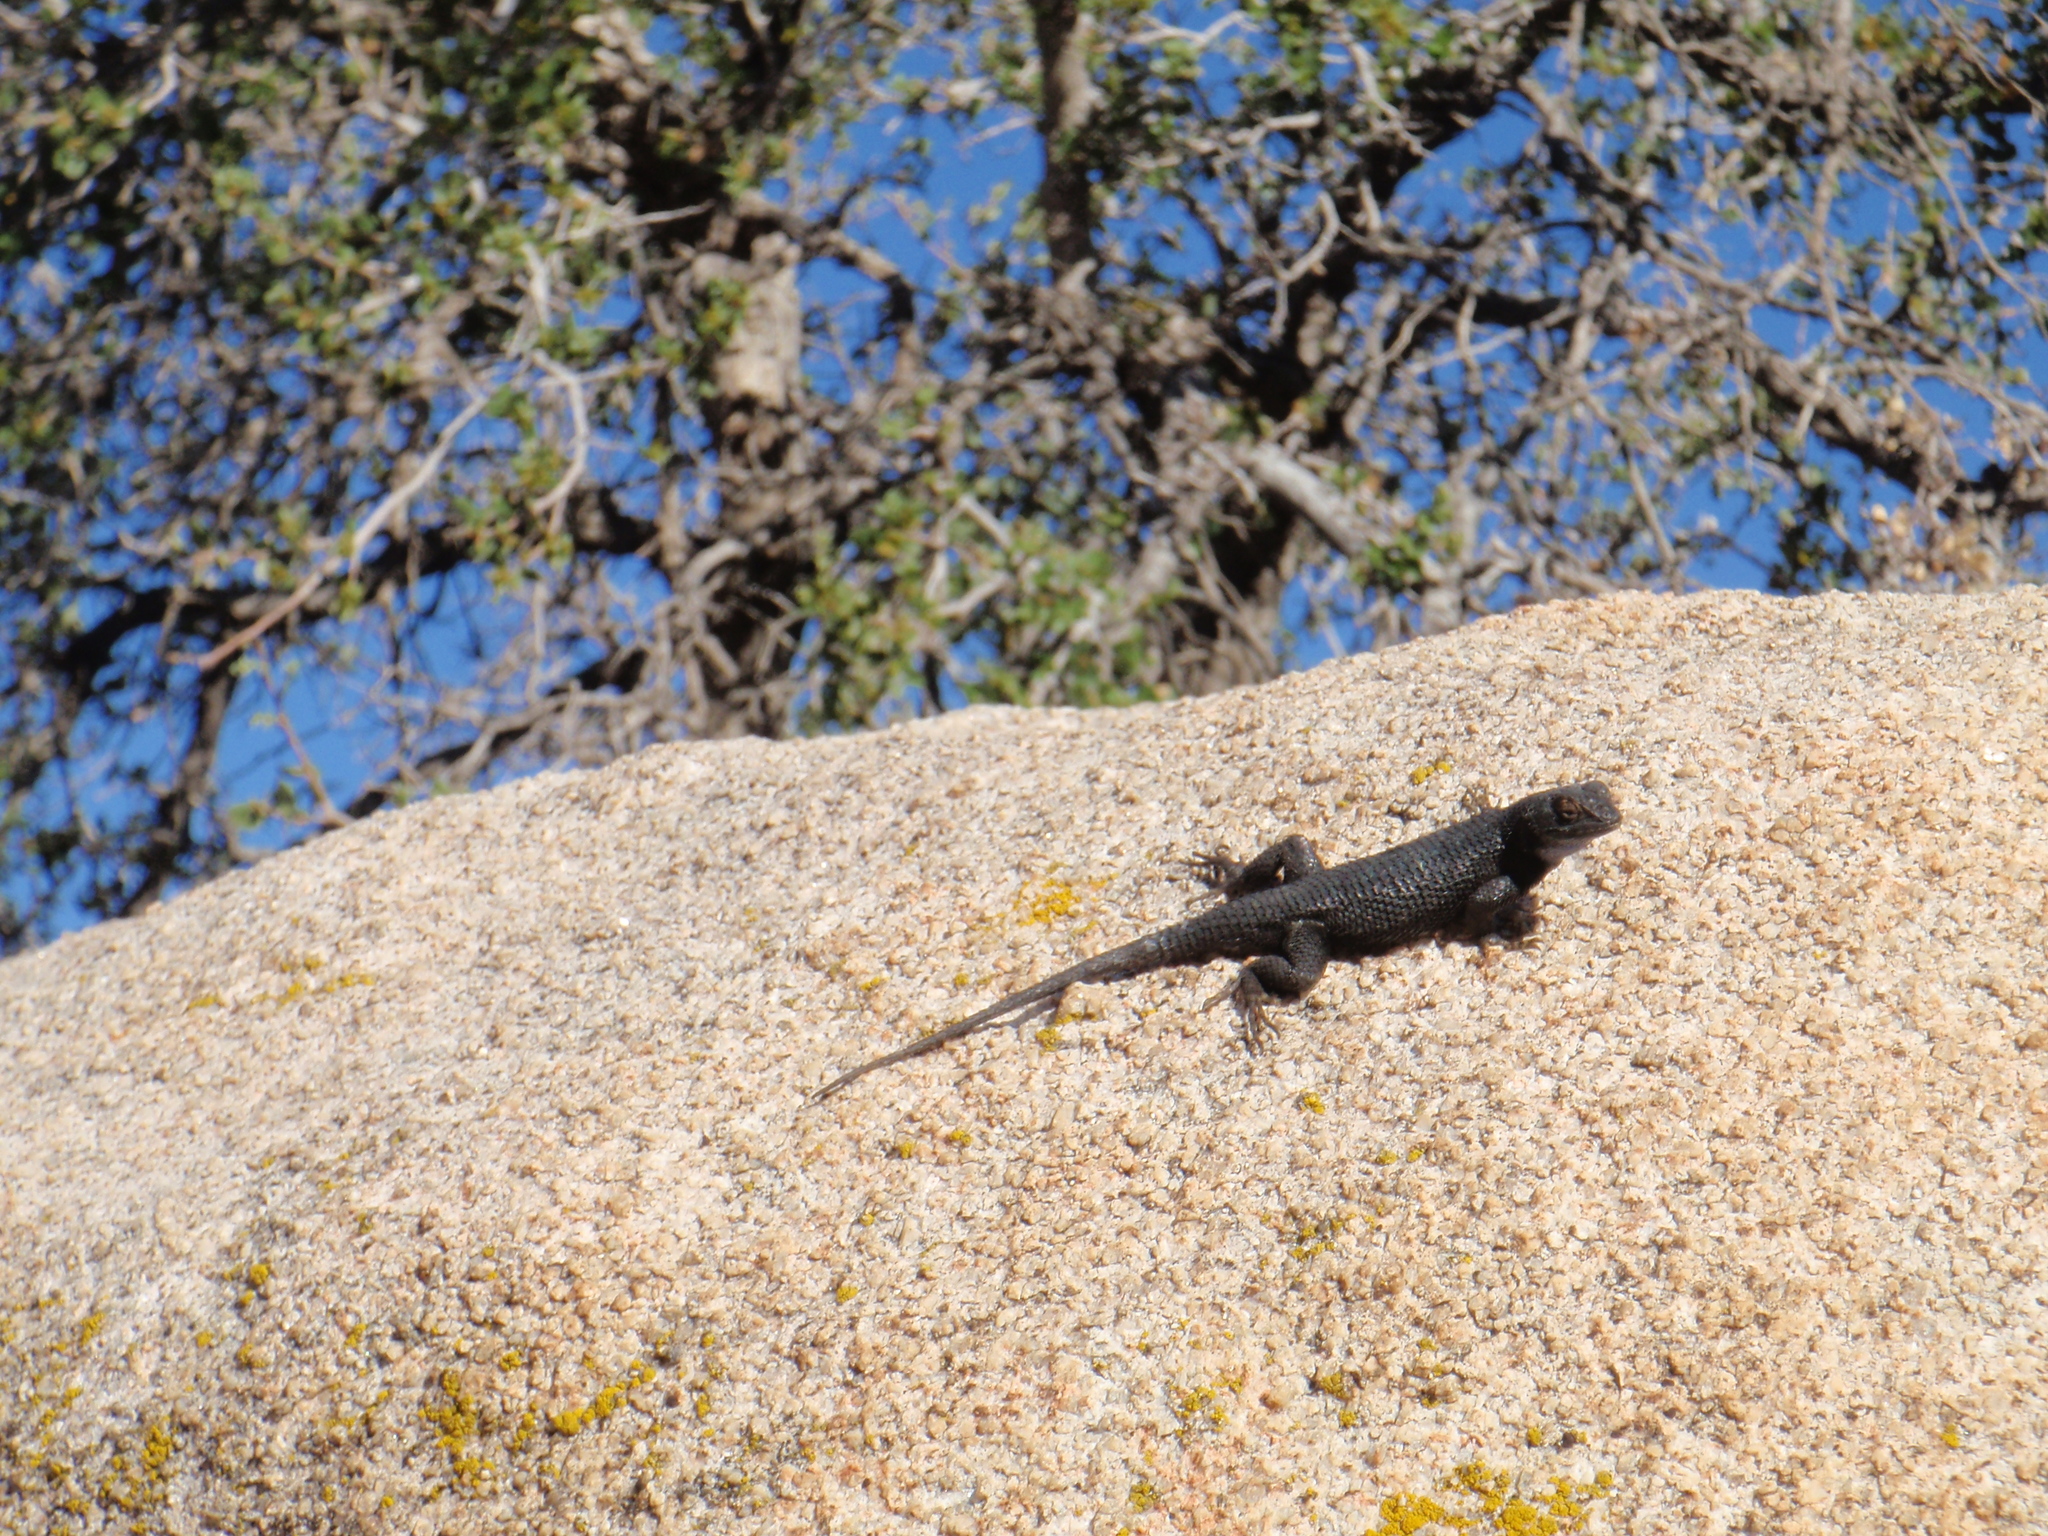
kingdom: Animalia
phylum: Chordata
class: Squamata
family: Phrynosomatidae
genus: Sceloporus
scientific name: Sceloporus occidentalis
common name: Western fence lizard
